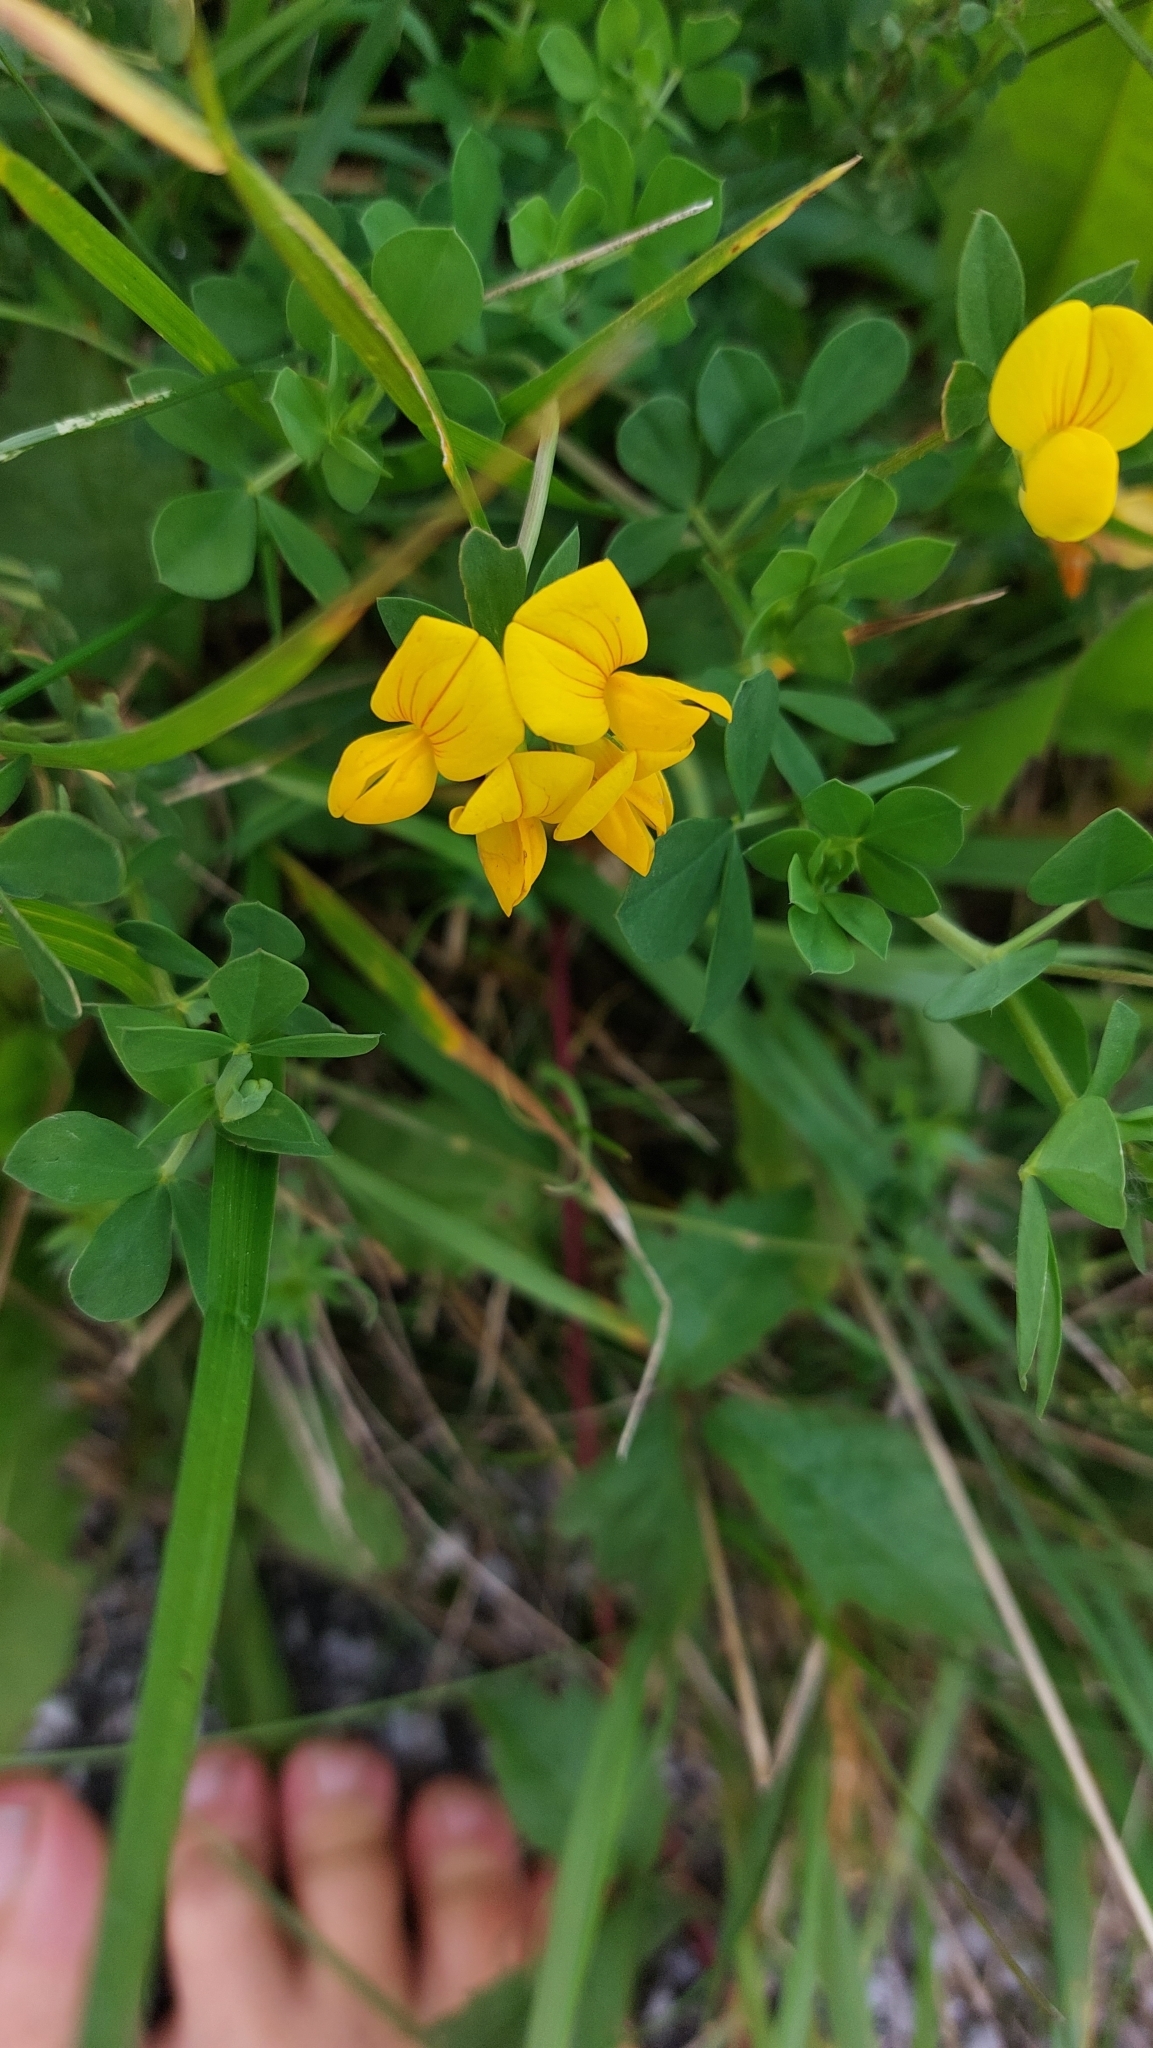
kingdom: Plantae
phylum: Tracheophyta
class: Magnoliopsida
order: Fabales
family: Fabaceae
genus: Lotus
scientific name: Lotus corniculatus
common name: Common bird's-foot-trefoil
